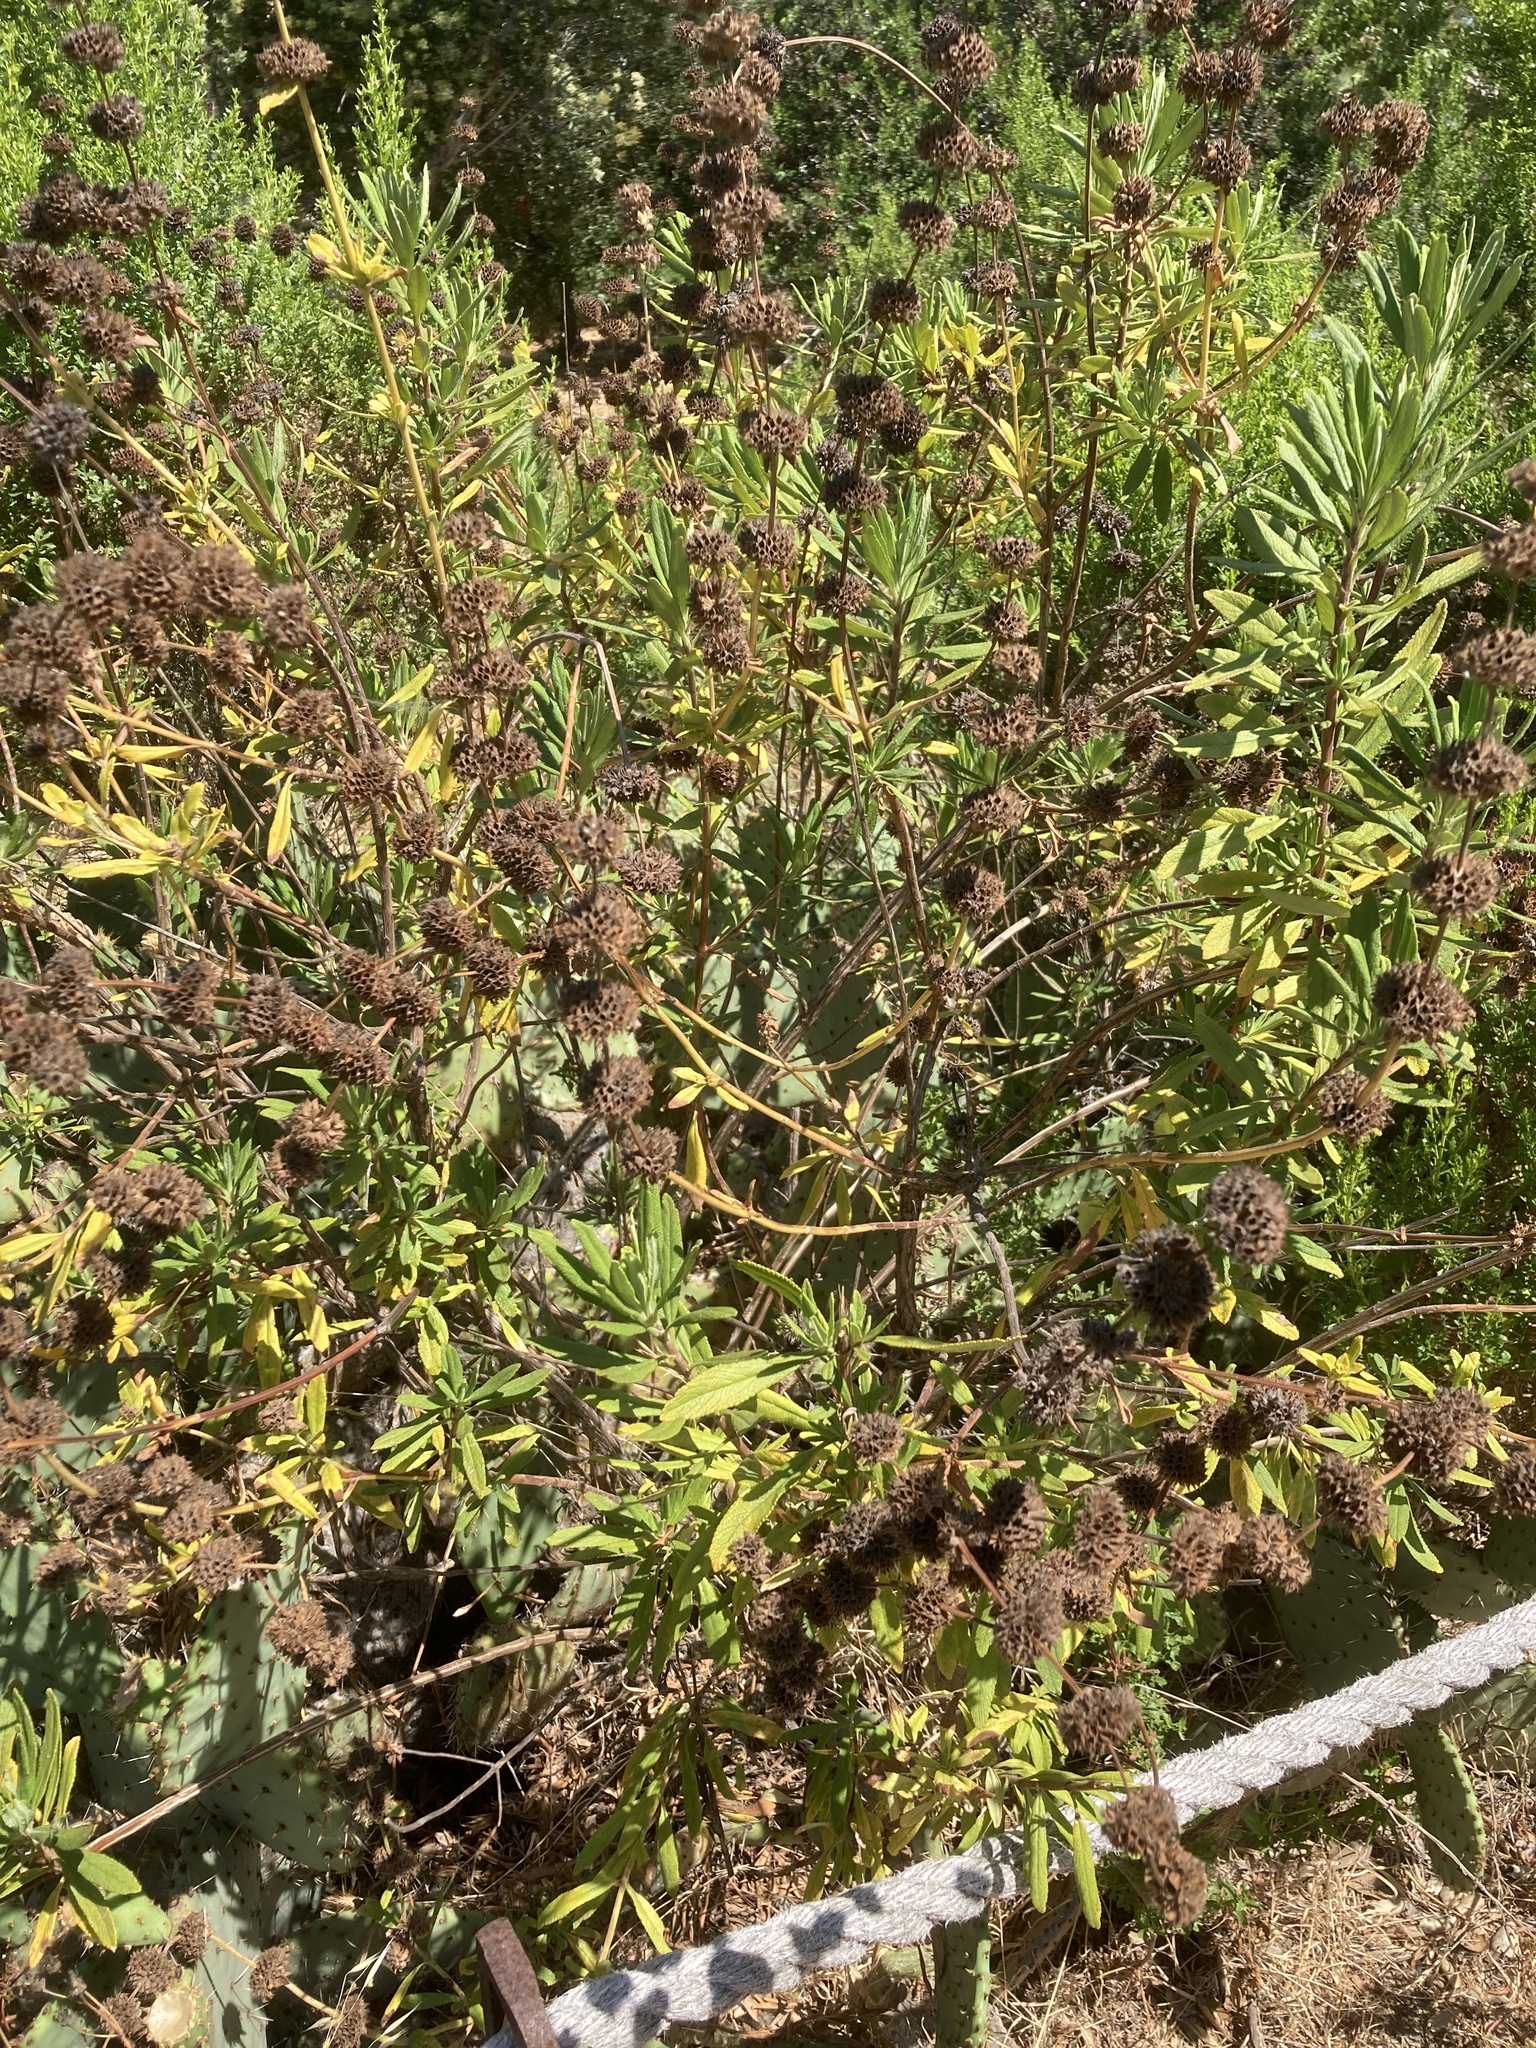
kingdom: Plantae
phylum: Tracheophyta
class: Magnoliopsida
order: Lamiales
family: Lamiaceae
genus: Salvia
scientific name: Salvia mellifera
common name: Black sage
